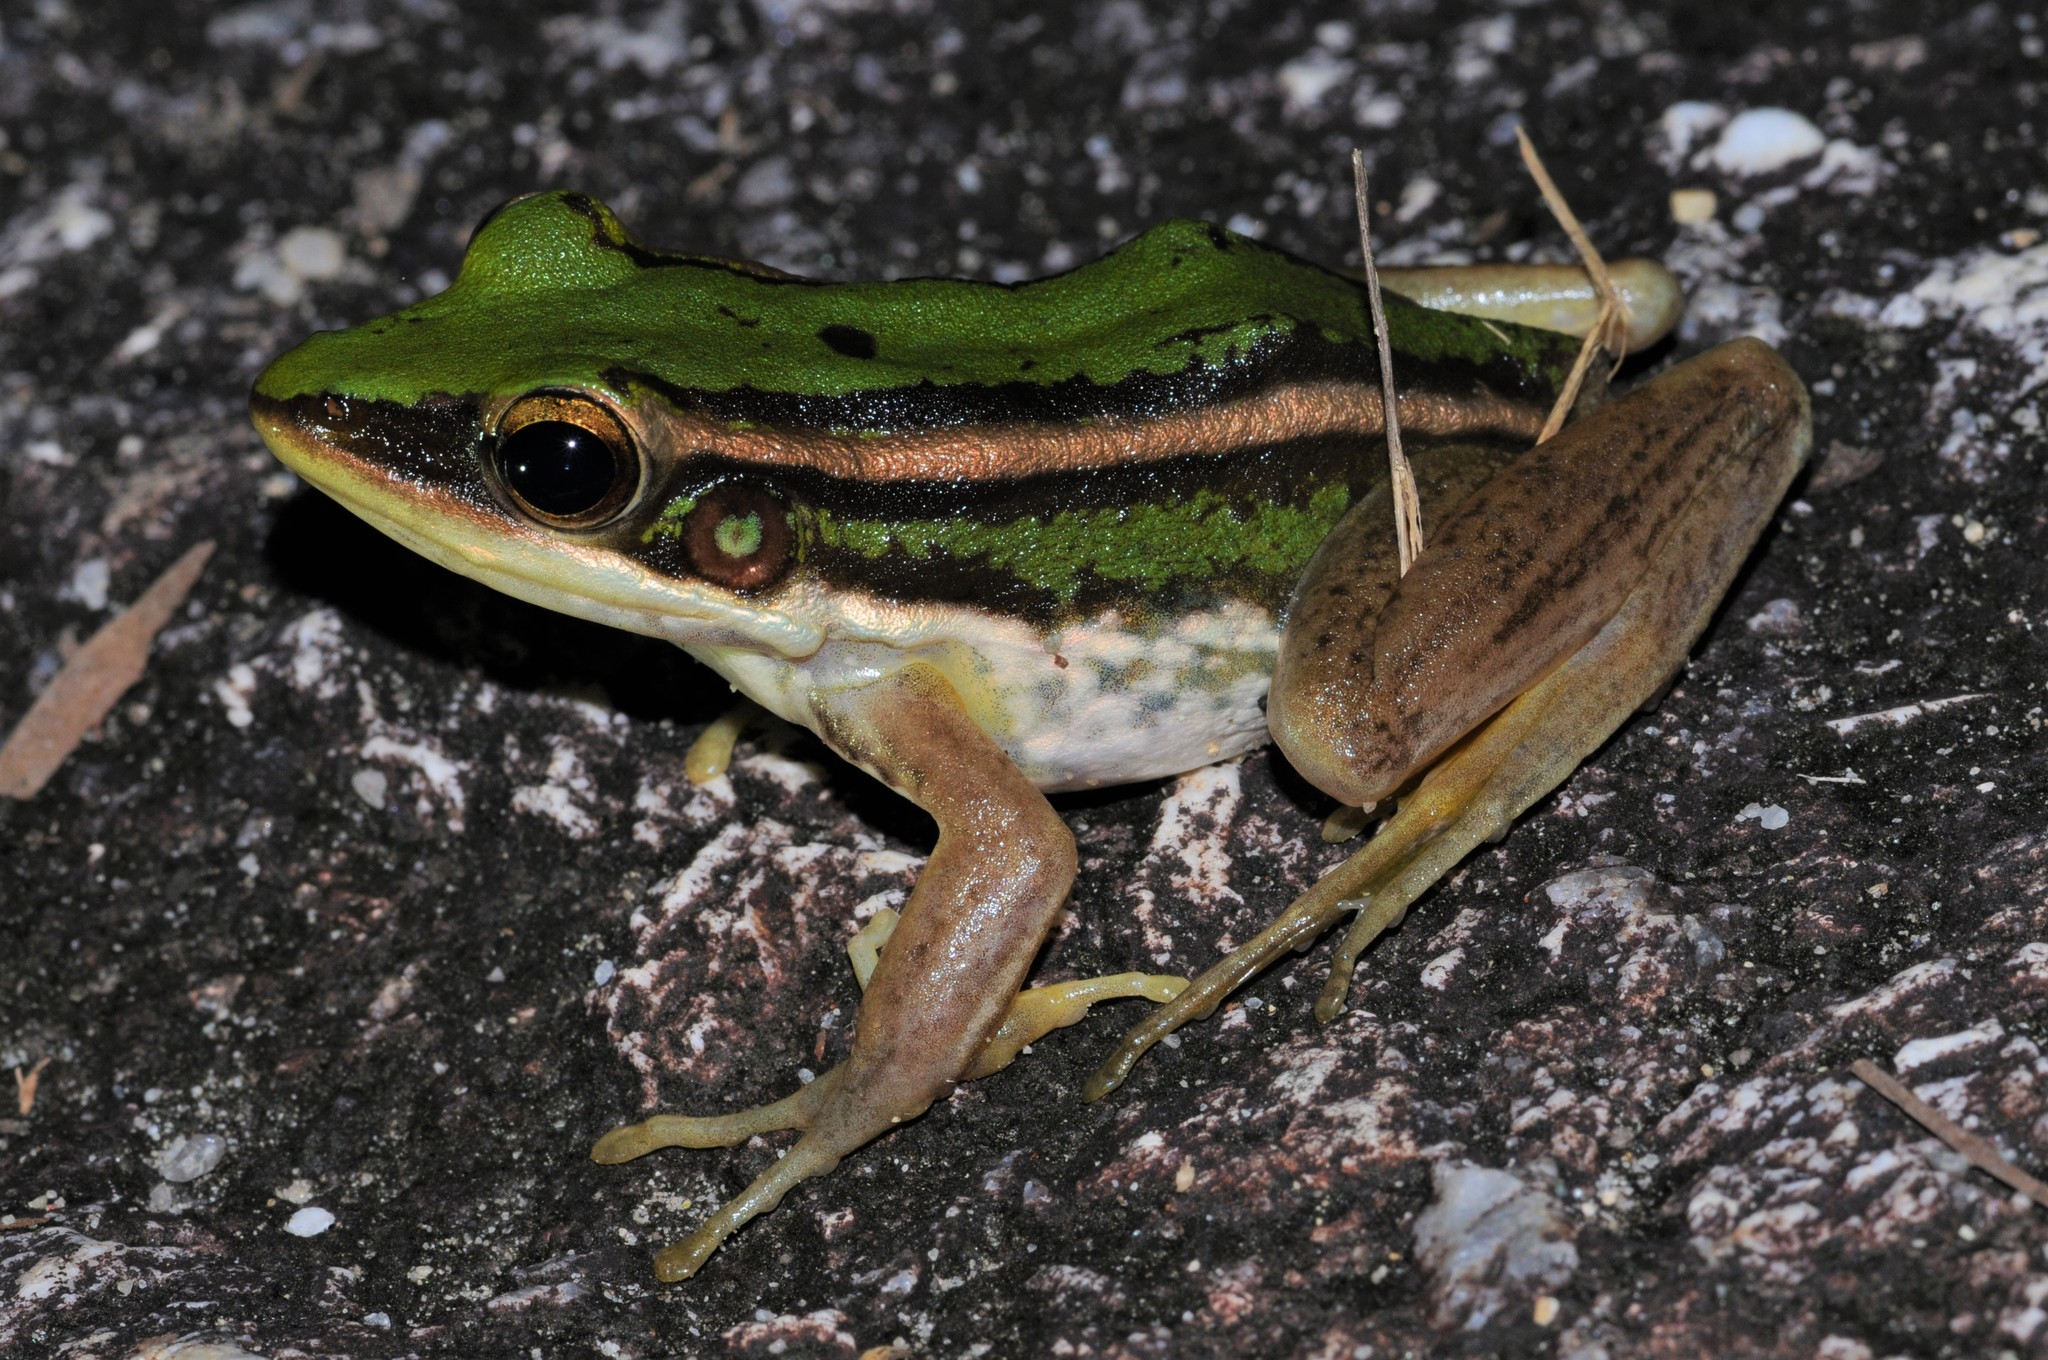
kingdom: Animalia
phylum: Chordata
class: Amphibia
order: Anura
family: Ranidae
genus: Hylarana
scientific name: Hylarana erythraea
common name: Common green frog/green paddy frog/leaf frog
